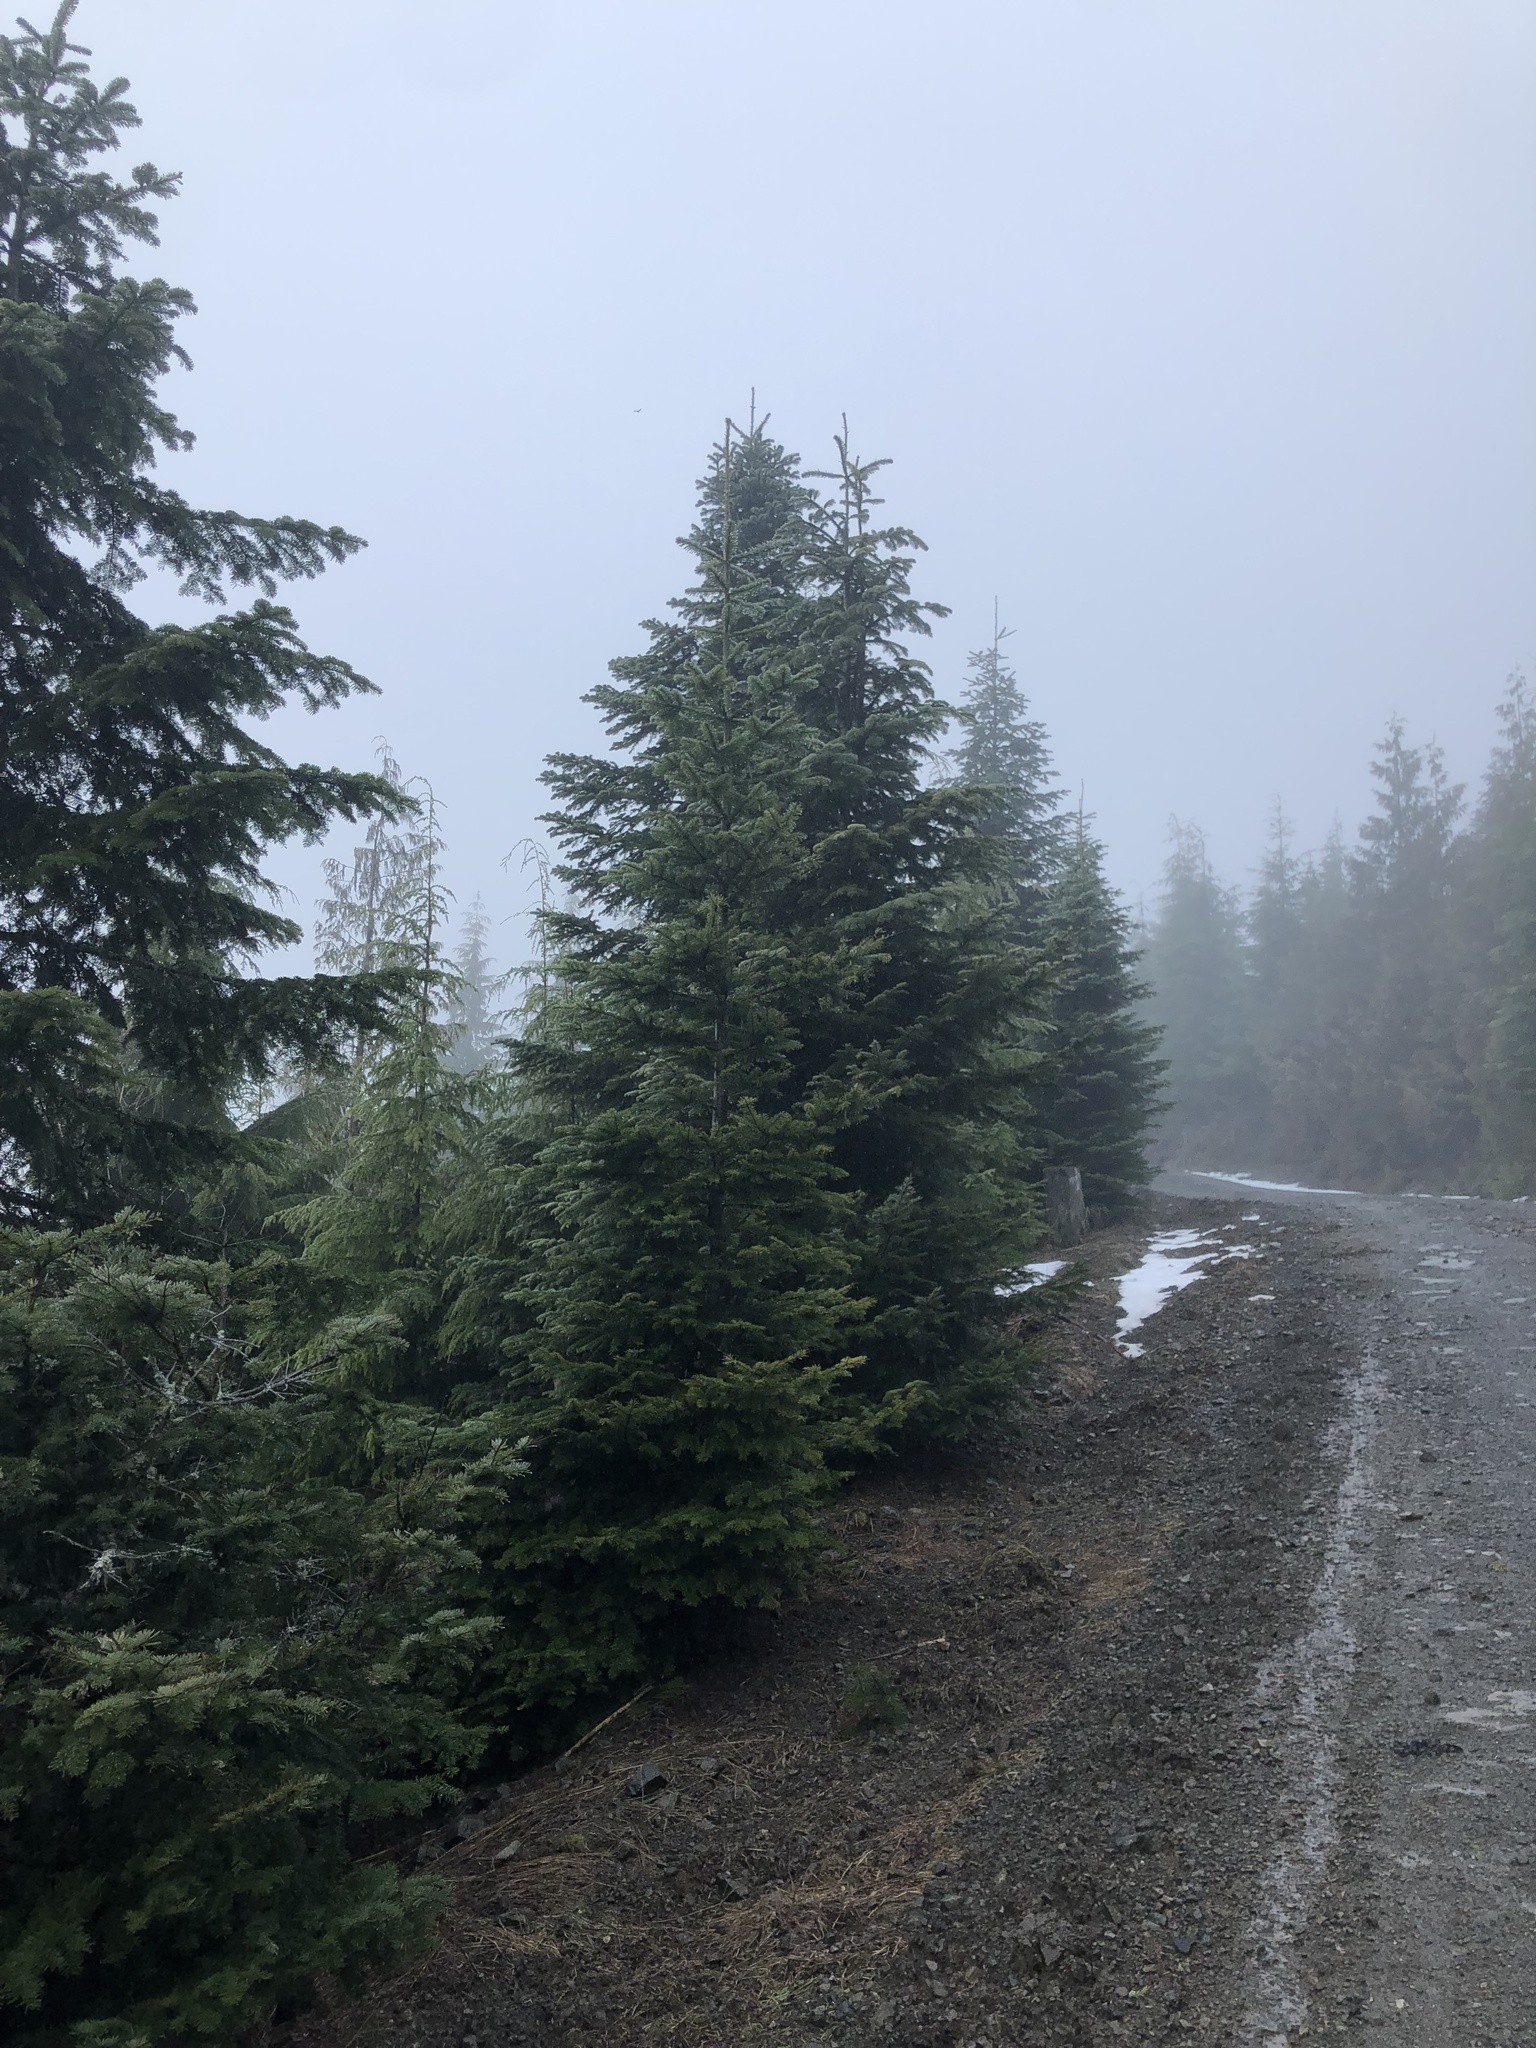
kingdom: Plantae
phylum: Tracheophyta
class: Pinopsida
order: Pinales
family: Pinaceae
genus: Abies
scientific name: Abies amabilis
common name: Pacific silver fir
